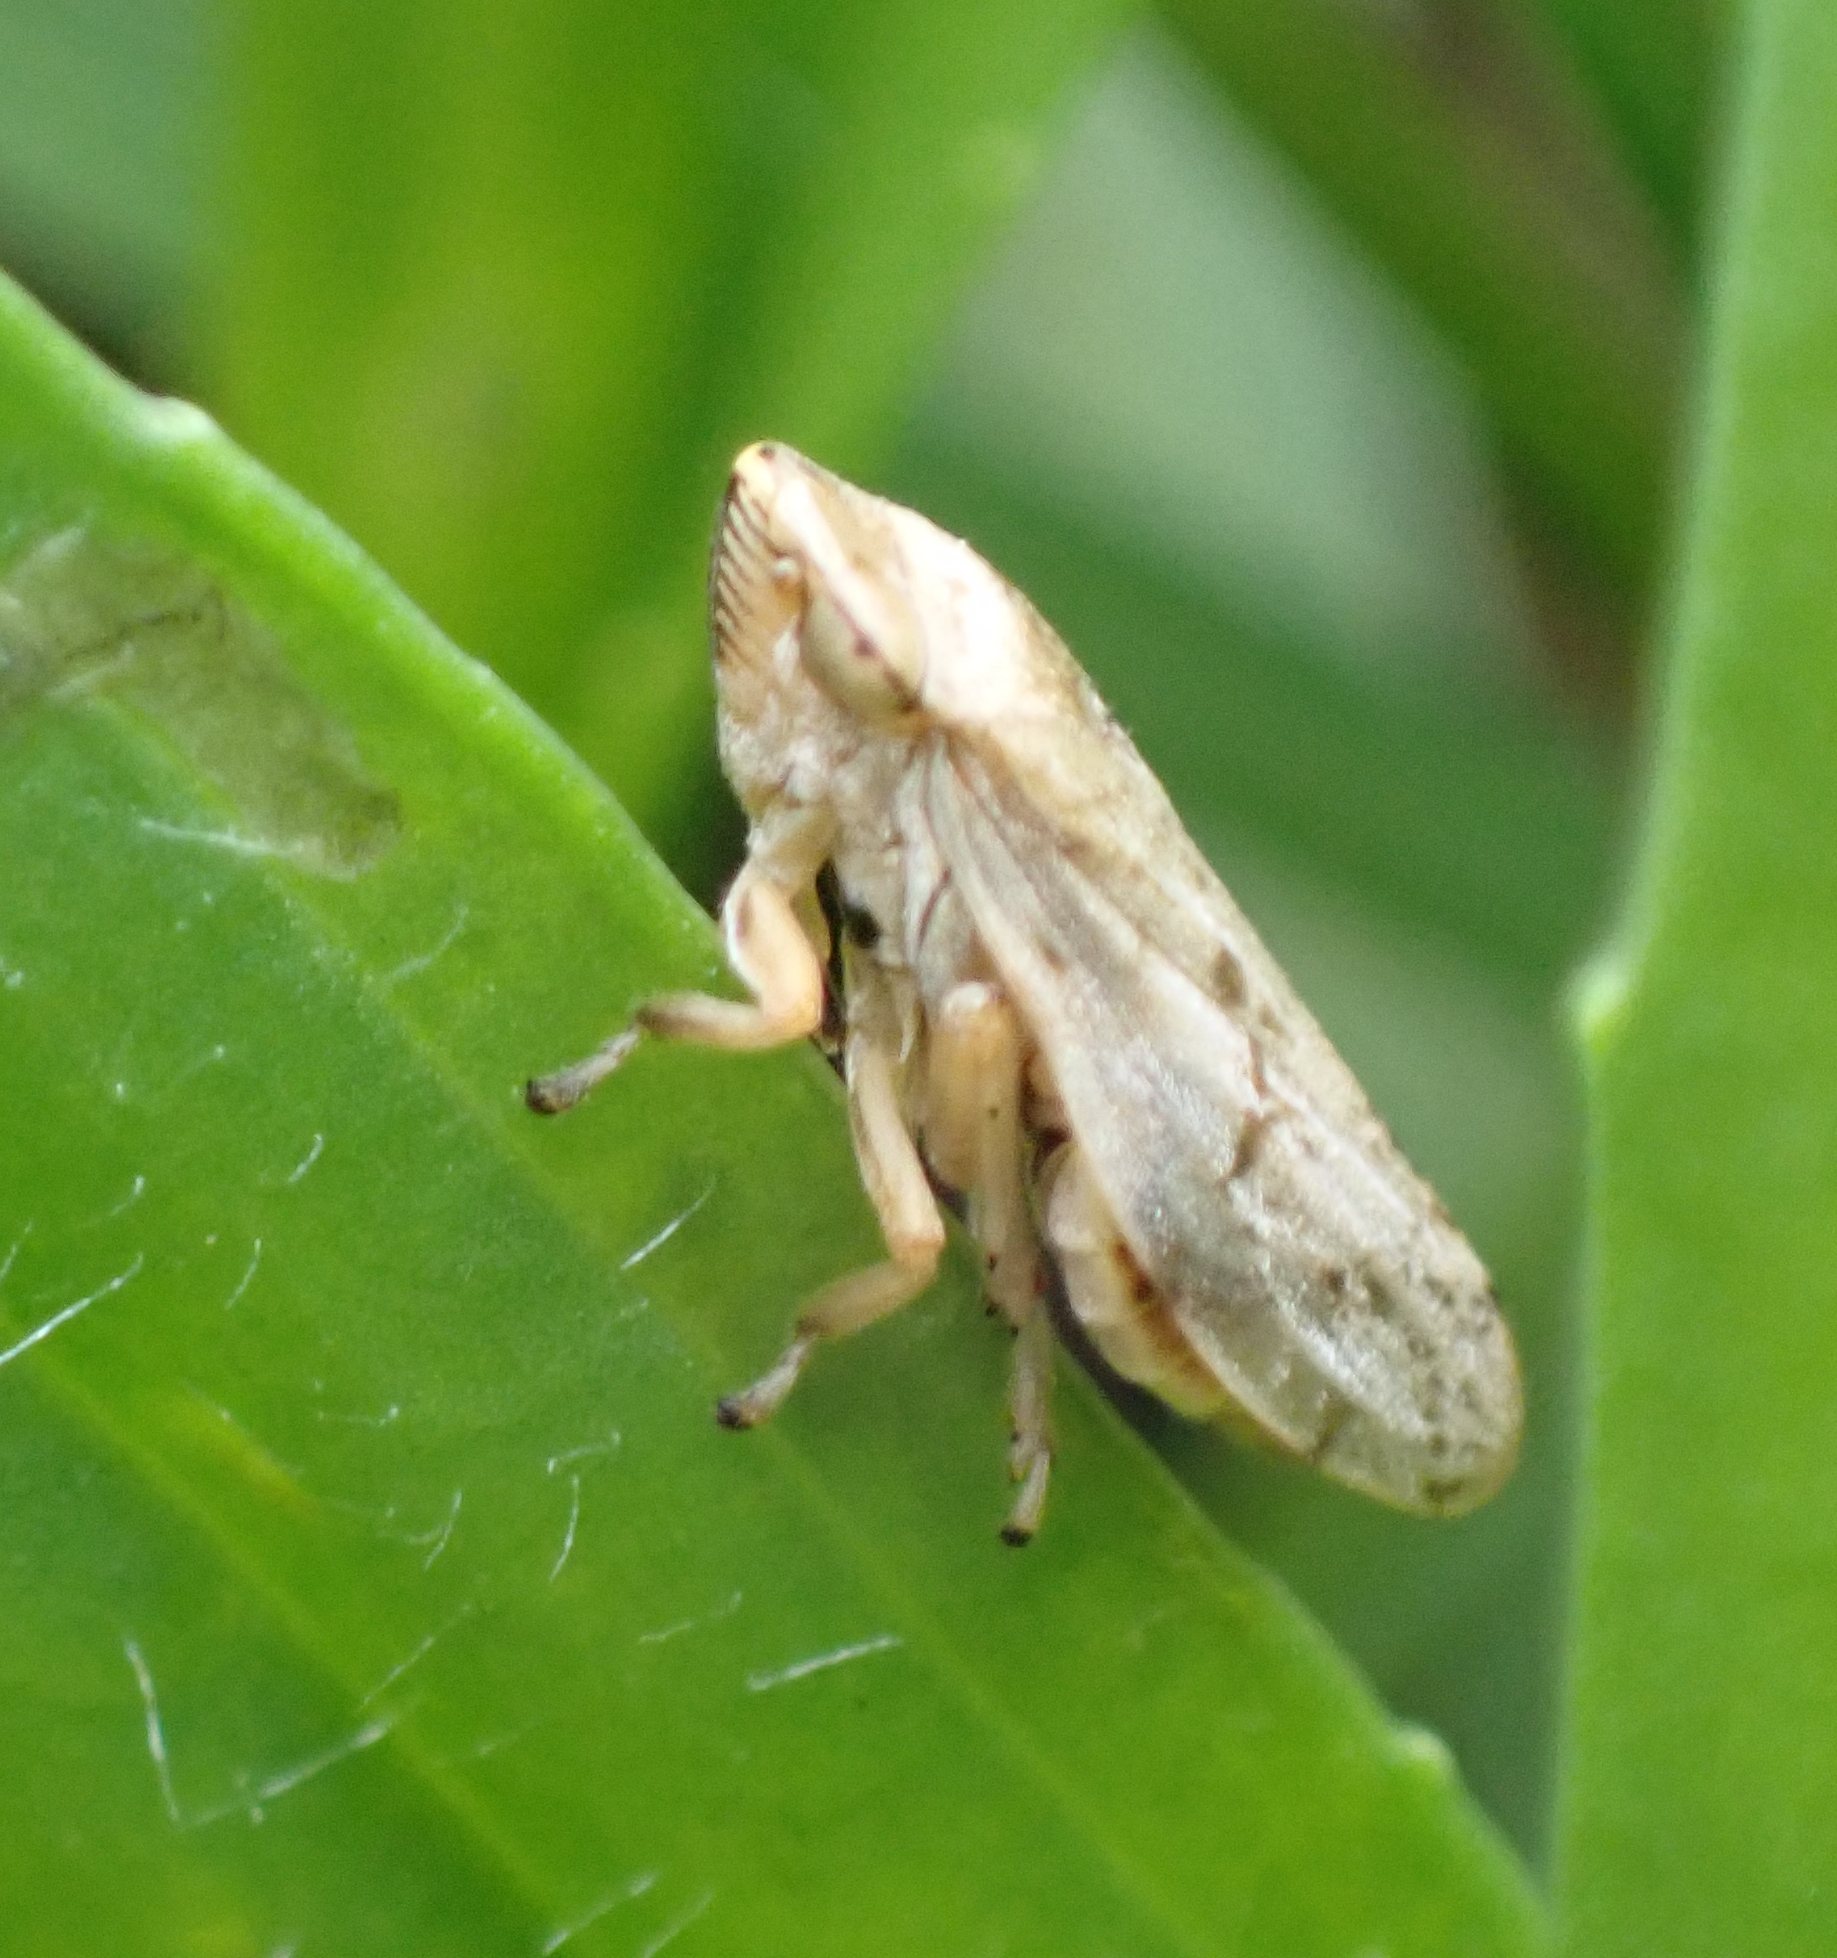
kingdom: Animalia
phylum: Arthropoda
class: Insecta
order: Hemiptera
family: Aphrophoridae
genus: Philaenus
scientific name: Philaenus spumarius
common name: Meadow spittlebug
